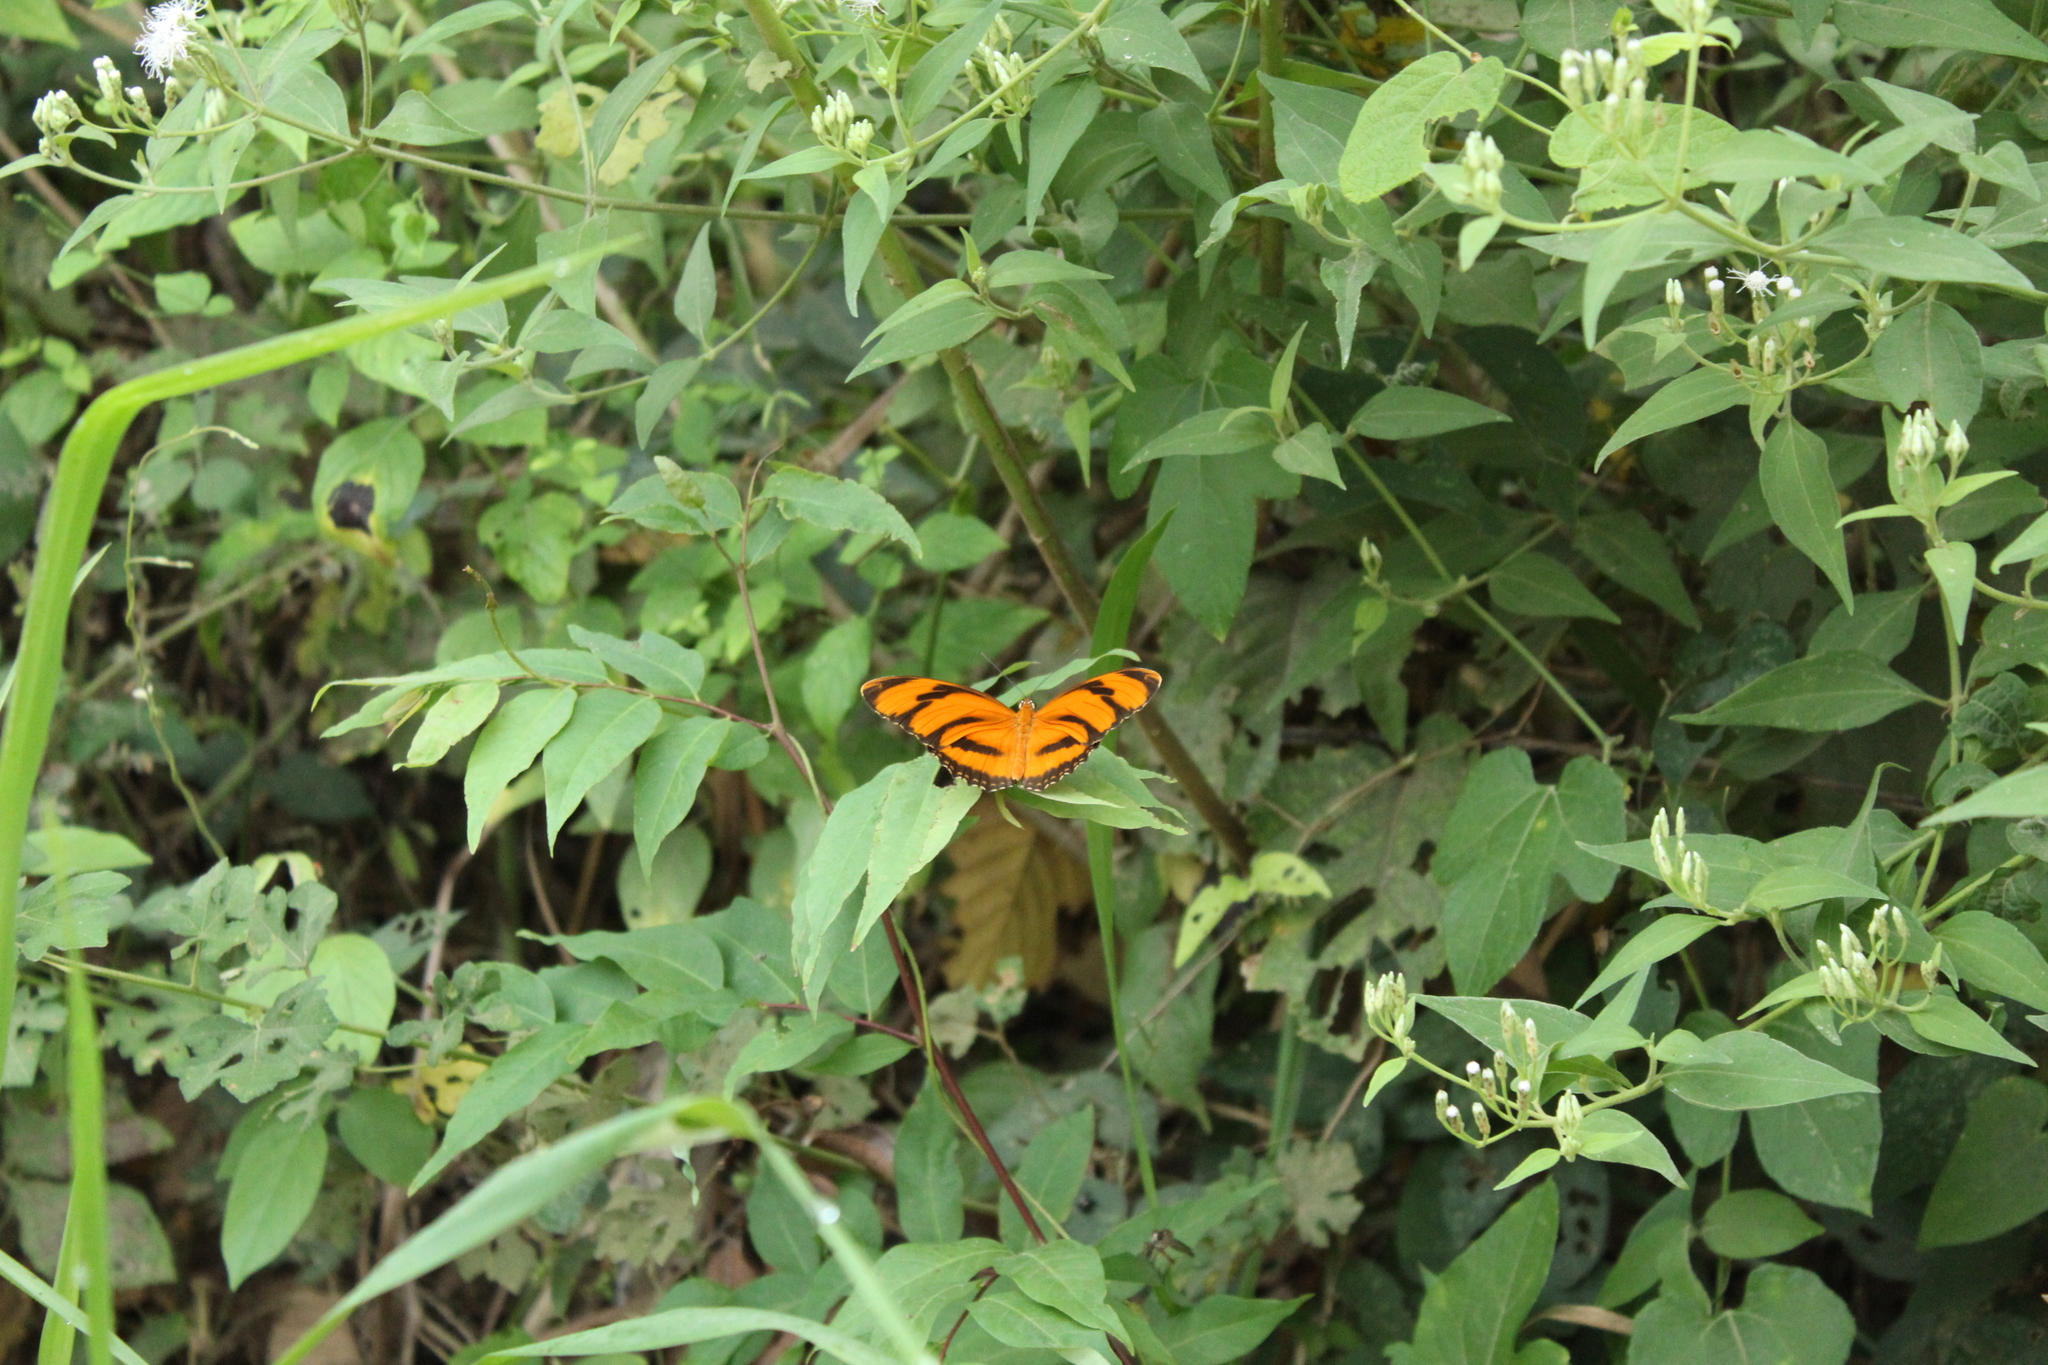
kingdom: Animalia
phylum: Arthropoda
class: Insecta
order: Lepidoptera
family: Nymphalidae
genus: Dryadula
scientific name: Dryadula phaetusa
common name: Banded orange heliconian
